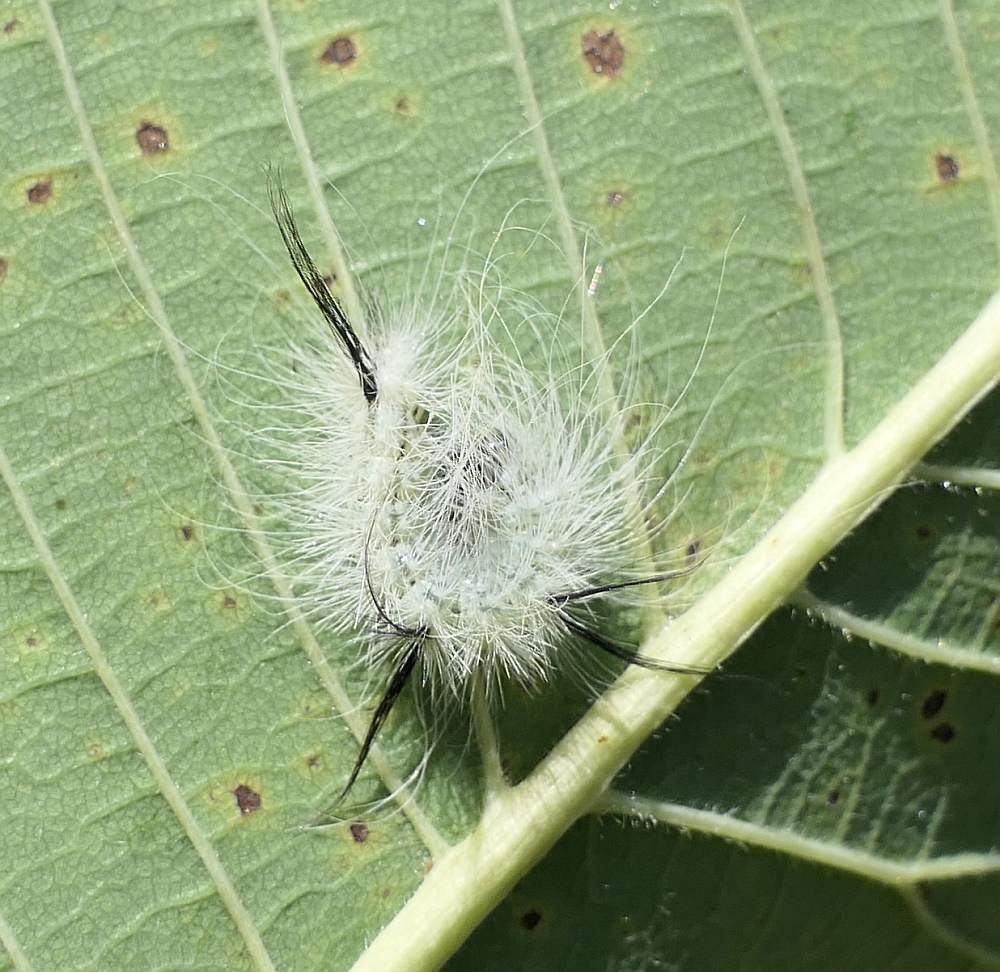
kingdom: Animalia
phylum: Arthropoda
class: Insecta
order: Lepidoptera
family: Noctuidae
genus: Acronicta
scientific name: Acronicta americana
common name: American dagger
